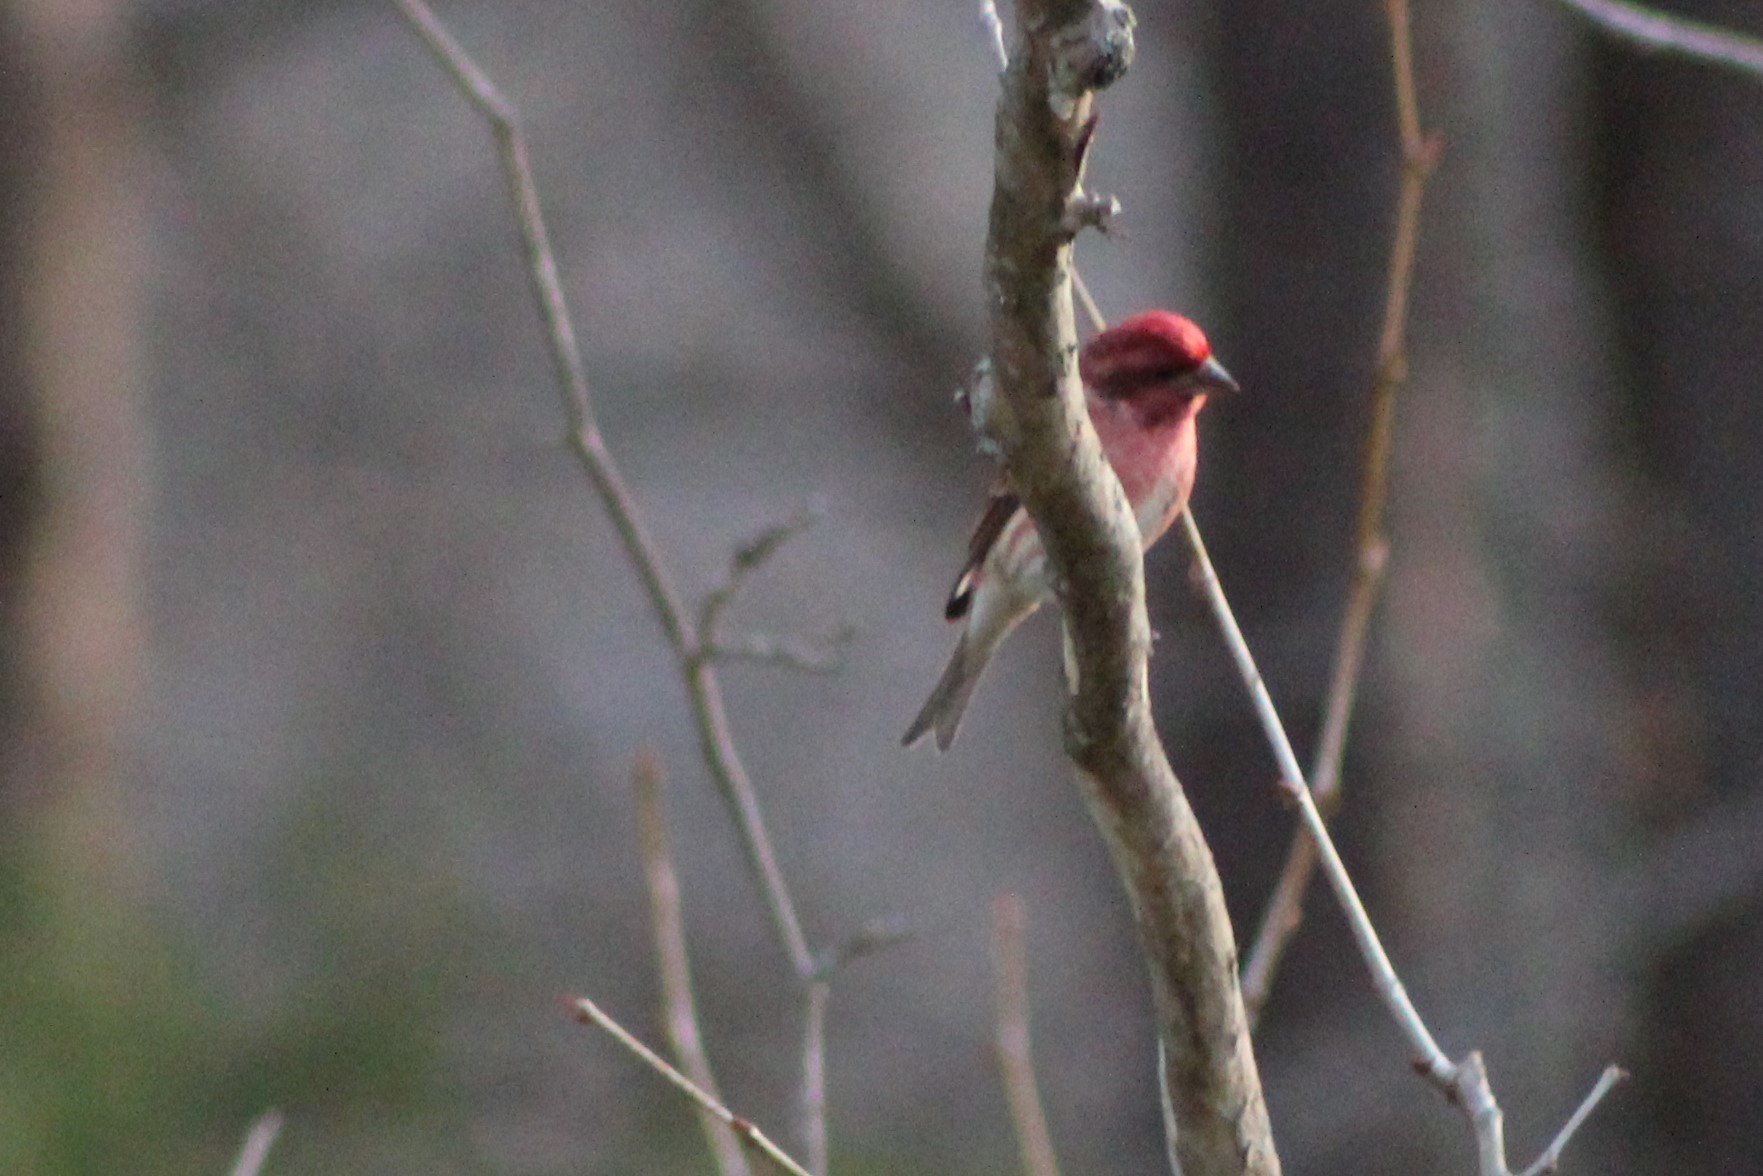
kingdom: Animalia
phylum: Chordata
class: Aves
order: Passeriformes
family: Fringillidae
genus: Haemorhous
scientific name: Haemorhous purpureus
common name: Purple finch
